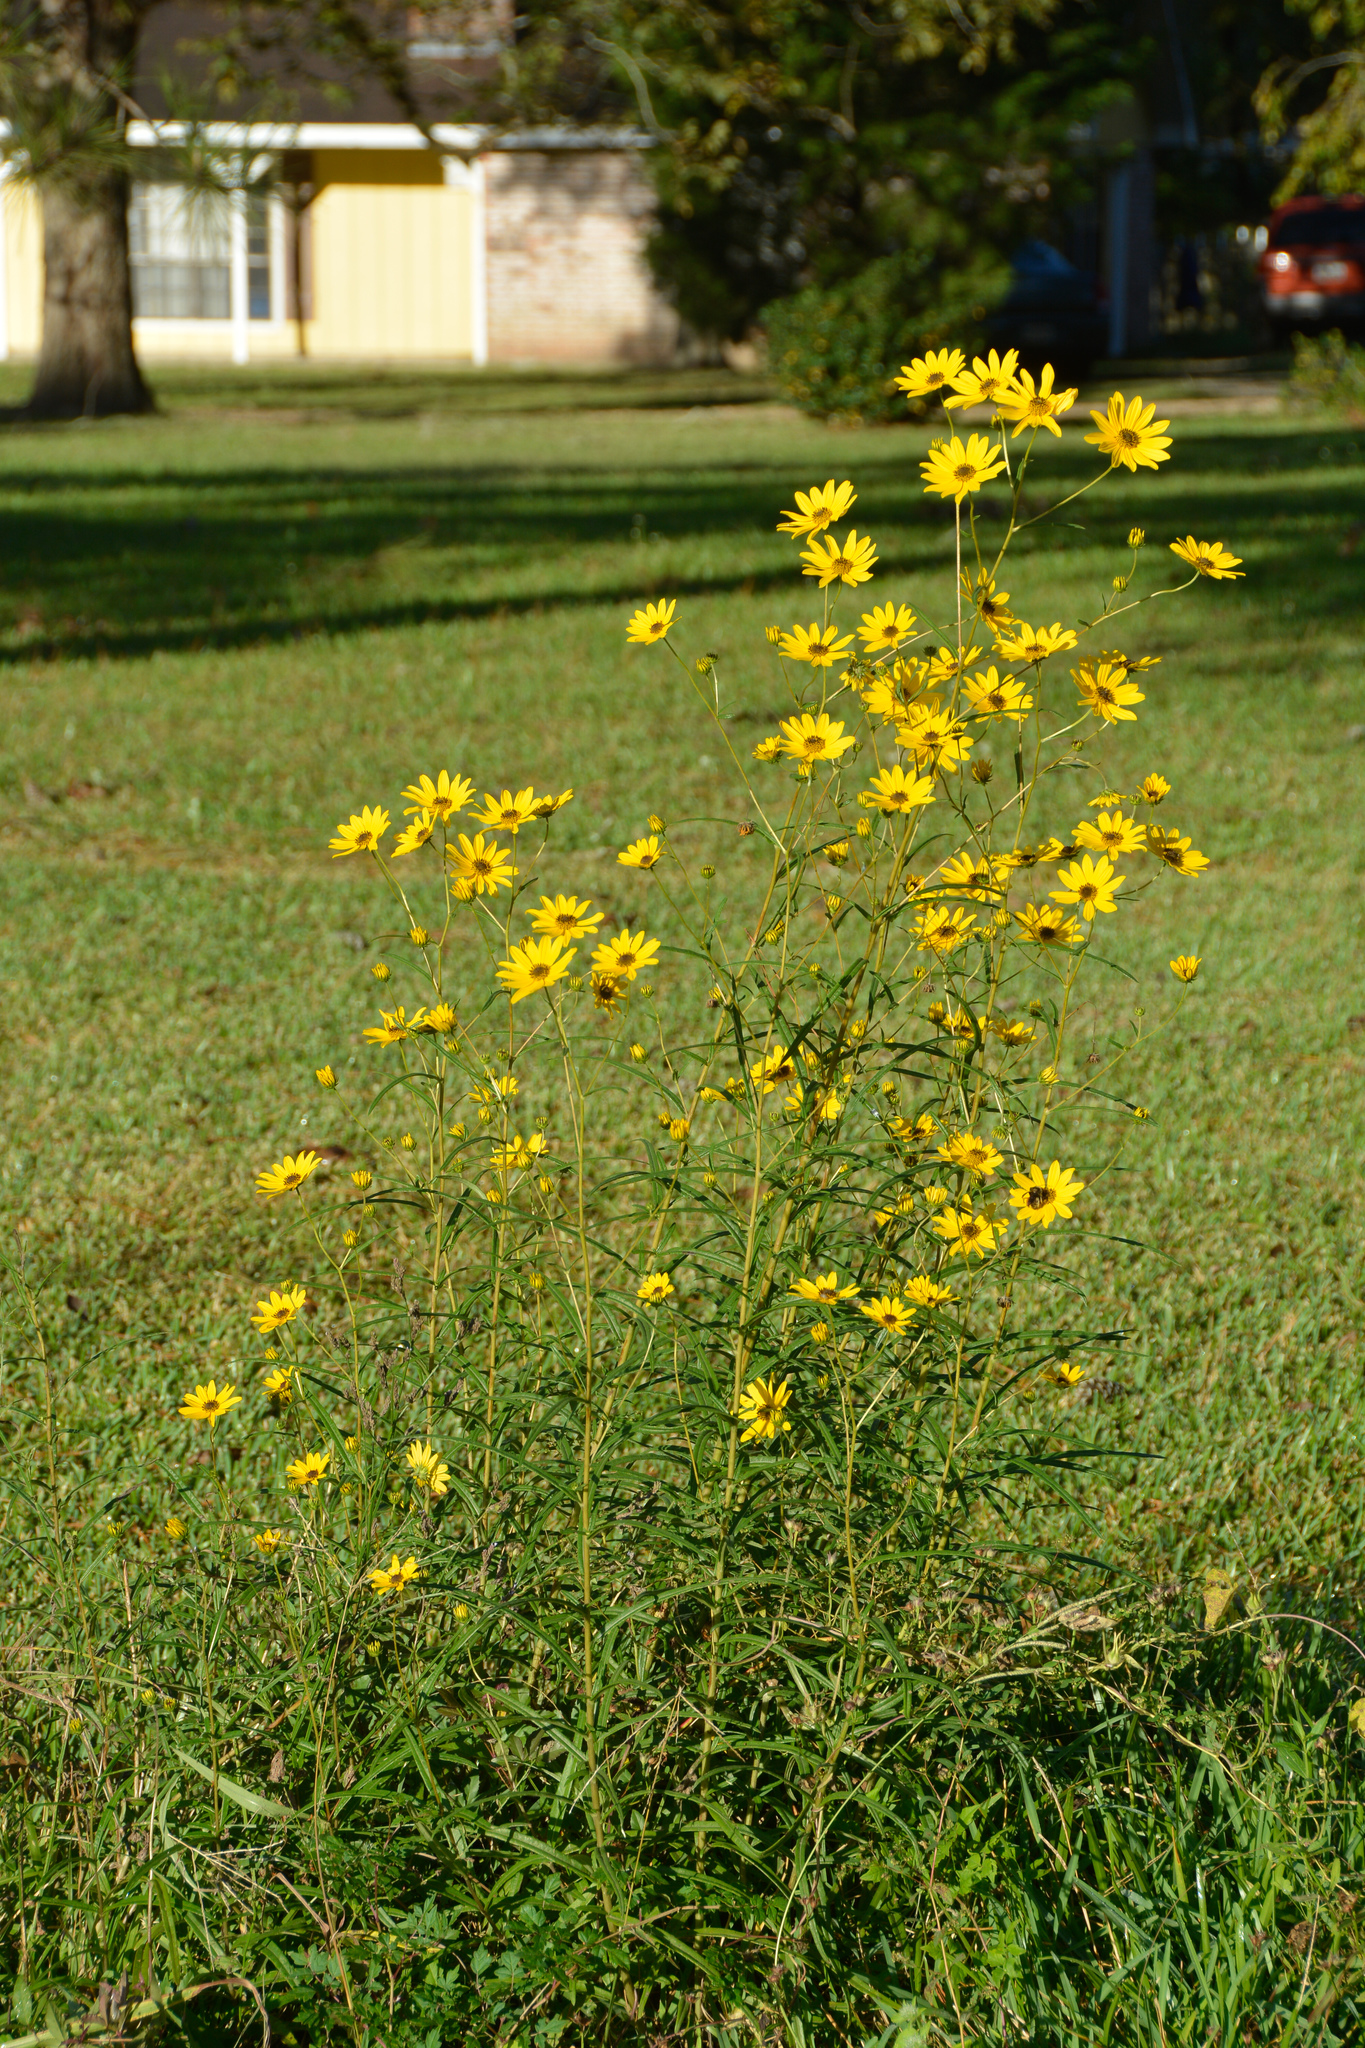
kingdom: Plantae
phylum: Tracheophyta
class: Magnoliopsida
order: Asterales
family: Asteraceae
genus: Helianthus
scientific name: Helianthus angustifolius
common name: Swamp sunflower
